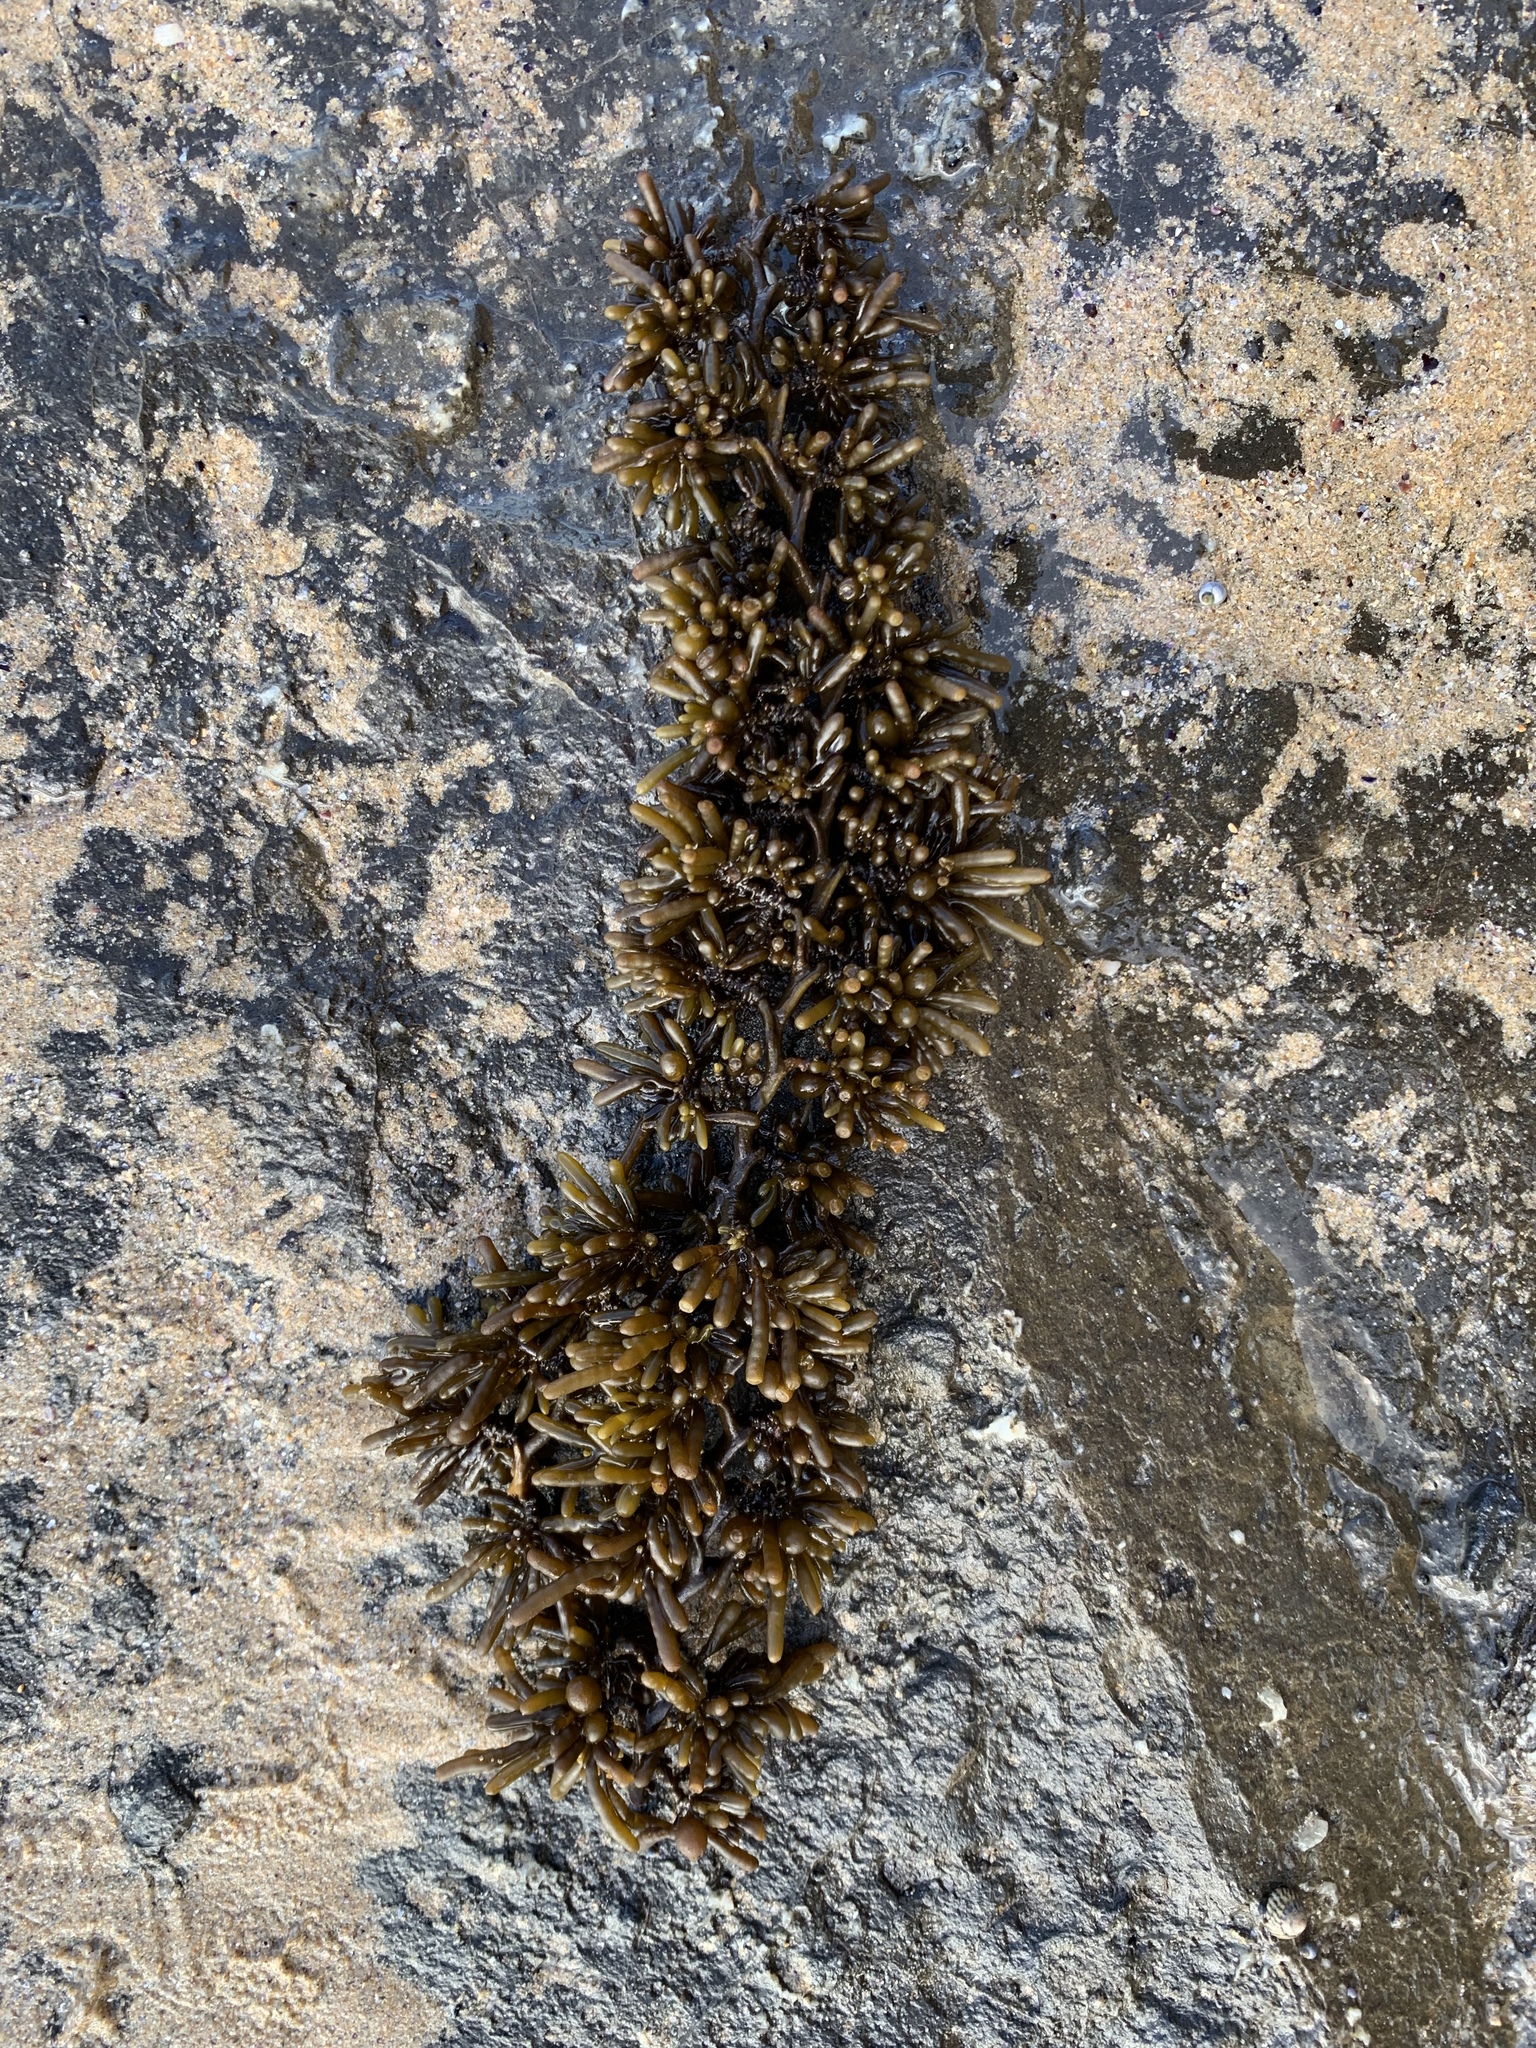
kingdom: Chromista
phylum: Ochrophyta
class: Phaeophyceae
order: Fucales
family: Sargassaceae
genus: Cystophora
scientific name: Cystophora torulosa
